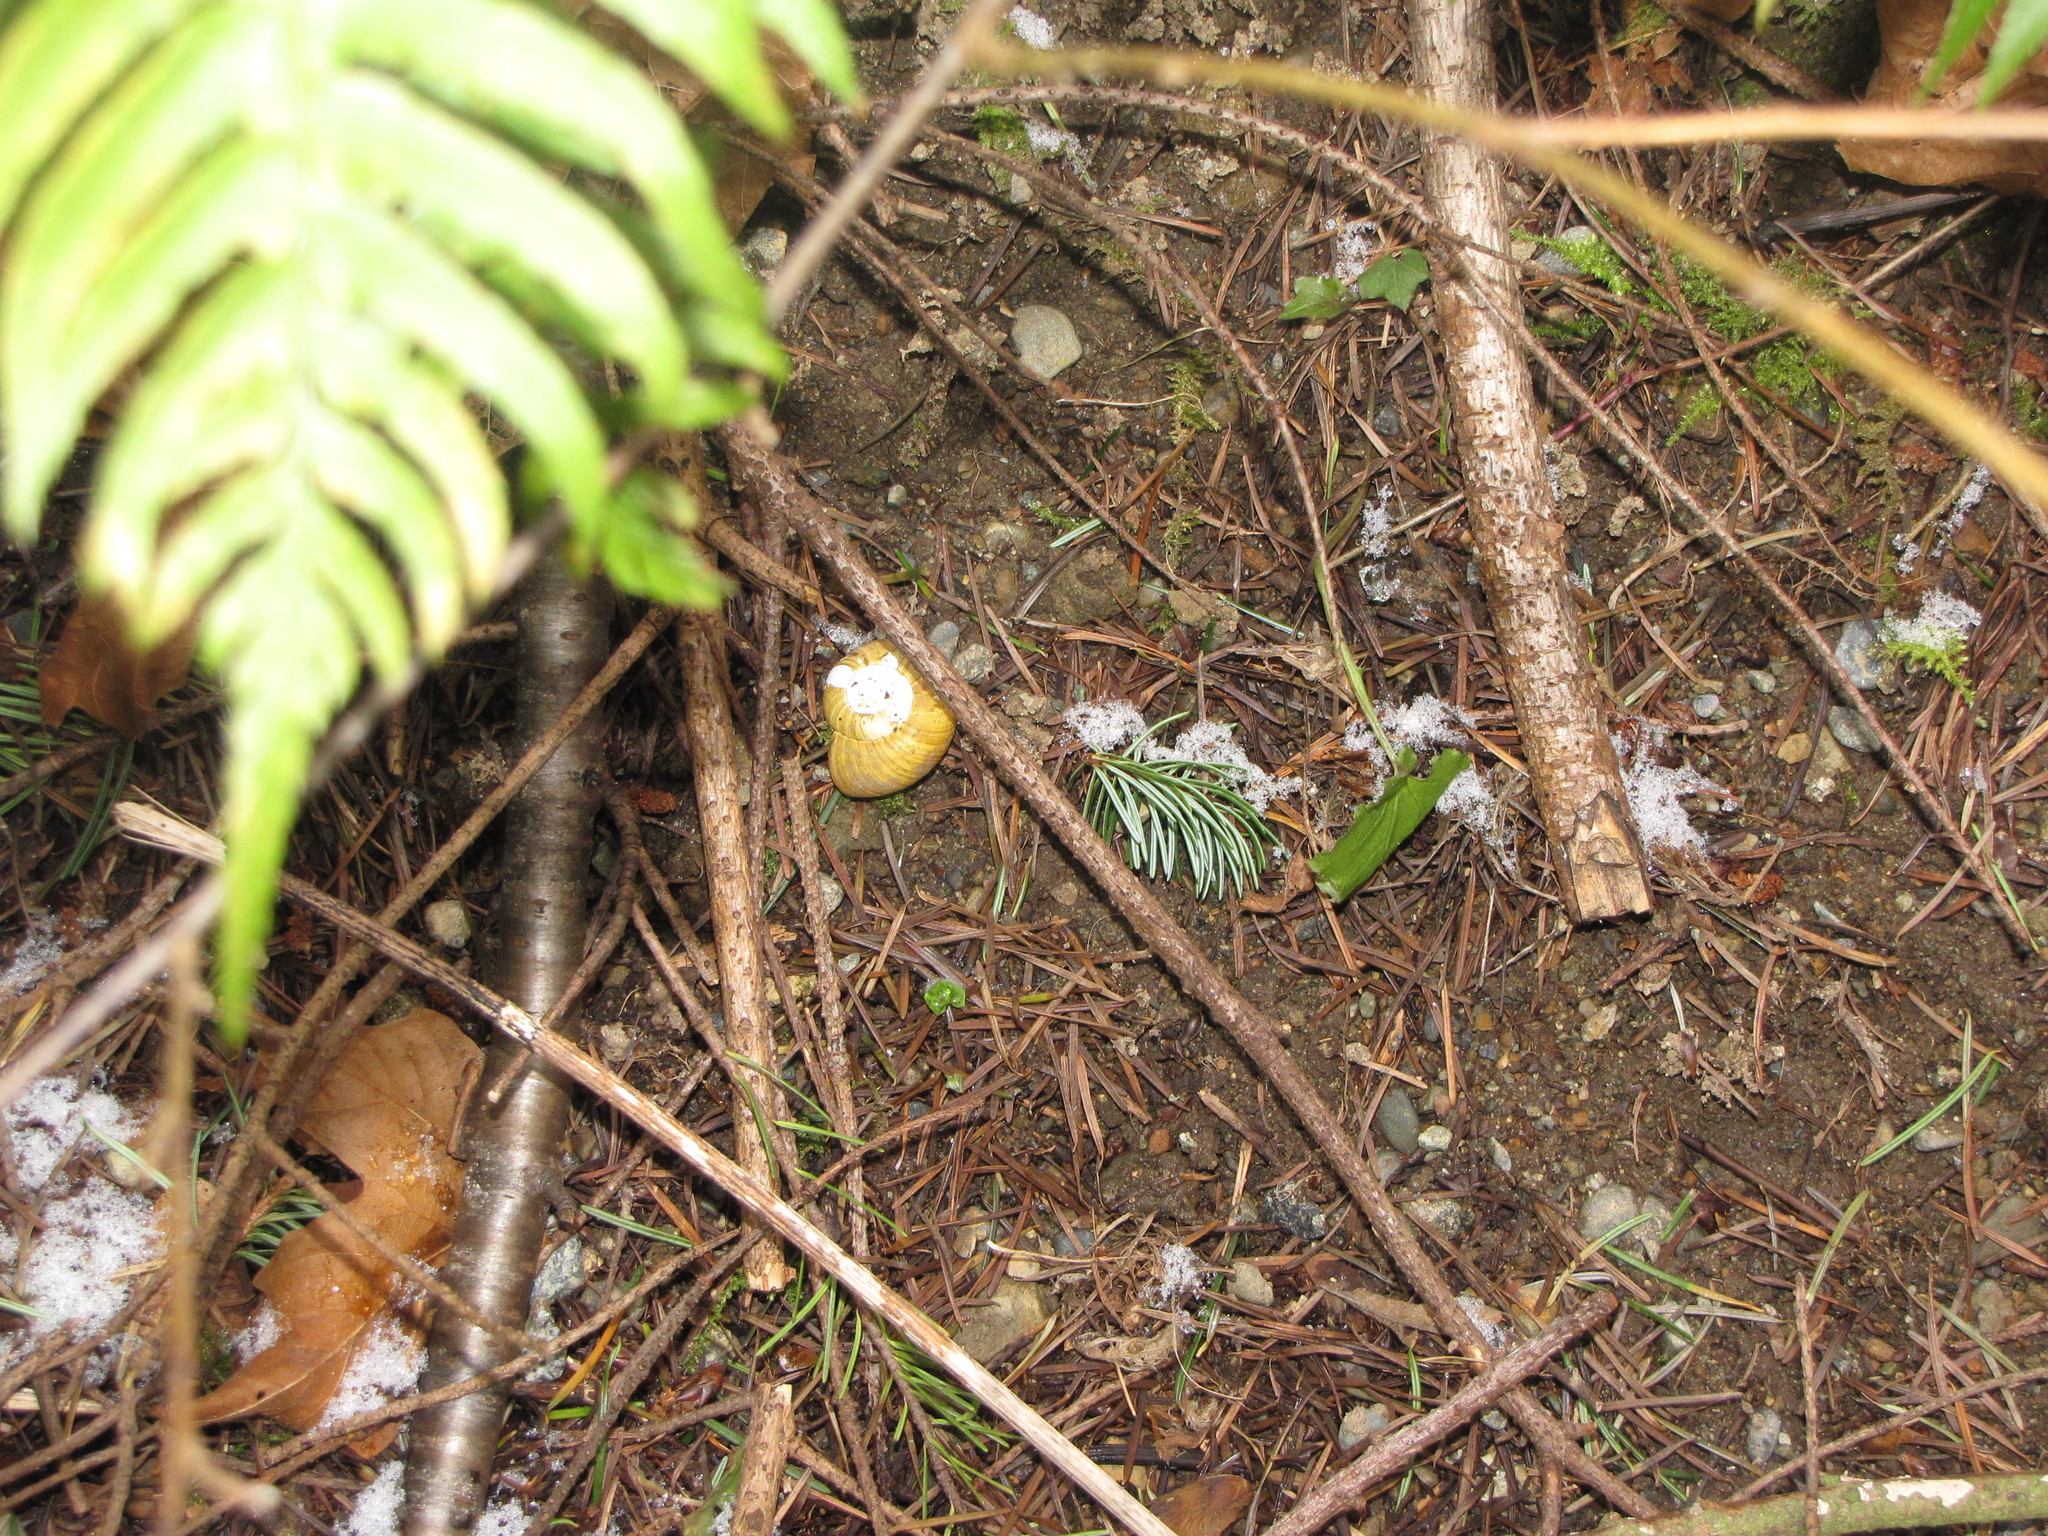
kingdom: Animalia
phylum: Mollusca
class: Gastropoda
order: Stylommatophora
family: Haplotrematidae
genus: Haplotrema
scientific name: Haplotrema vancouverense
